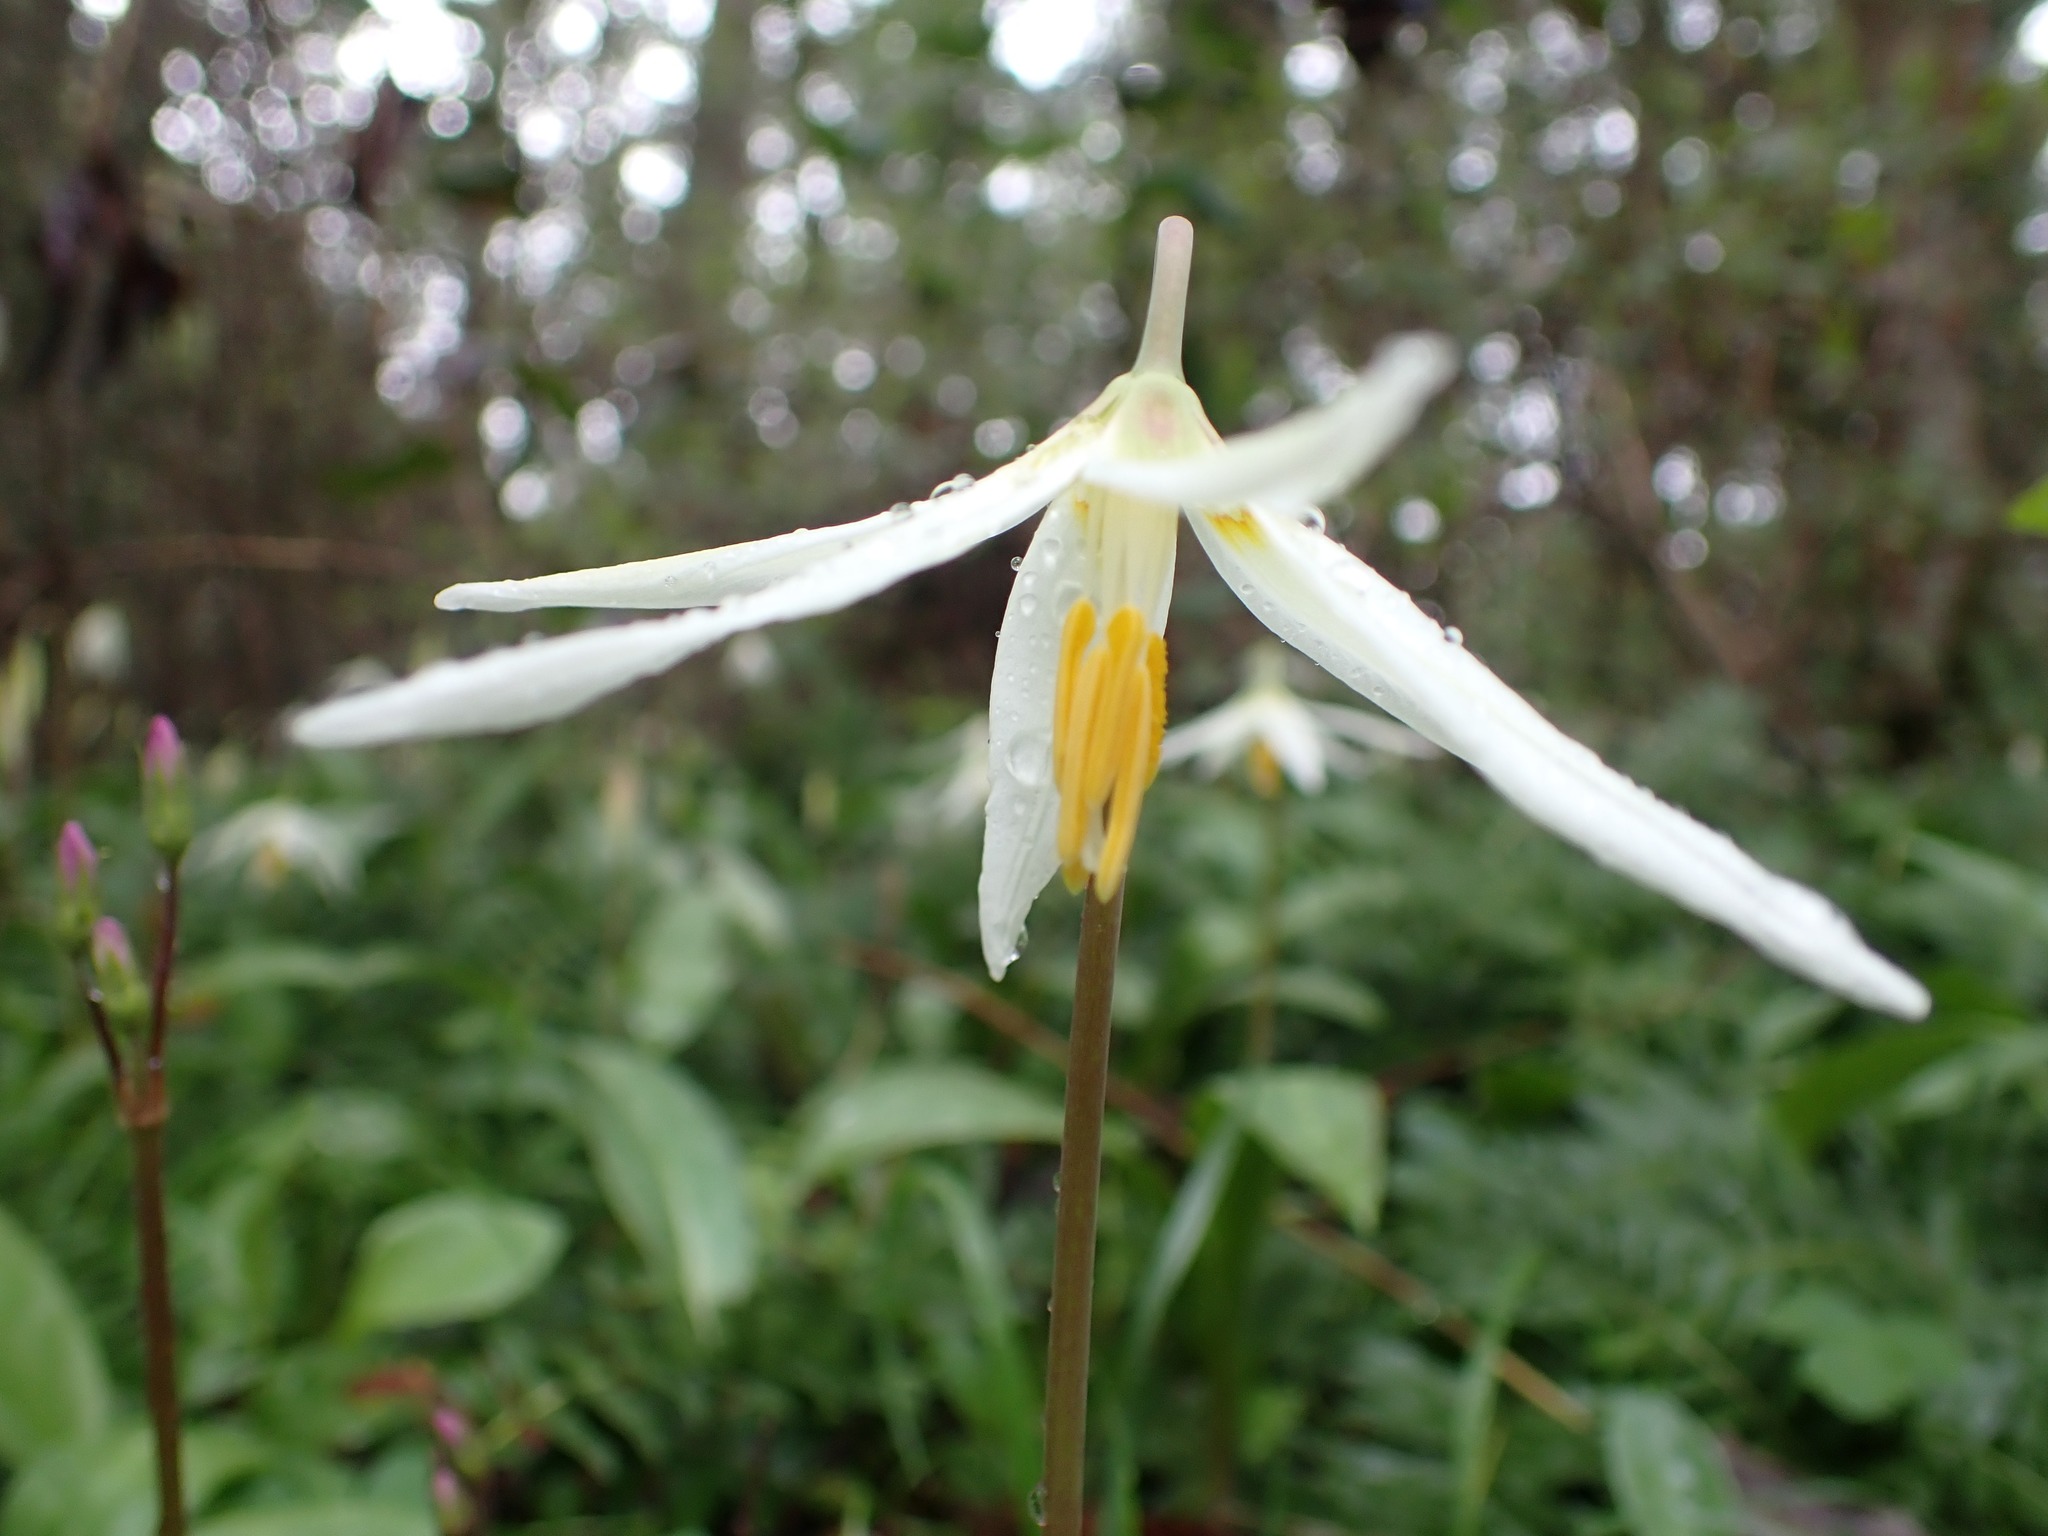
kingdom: Plantae
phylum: Tracheophyta
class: Liliopsida
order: Liliales
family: Liliaceae
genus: Erythronium
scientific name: Erythronium oregonum
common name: Giant adder's-tongue
